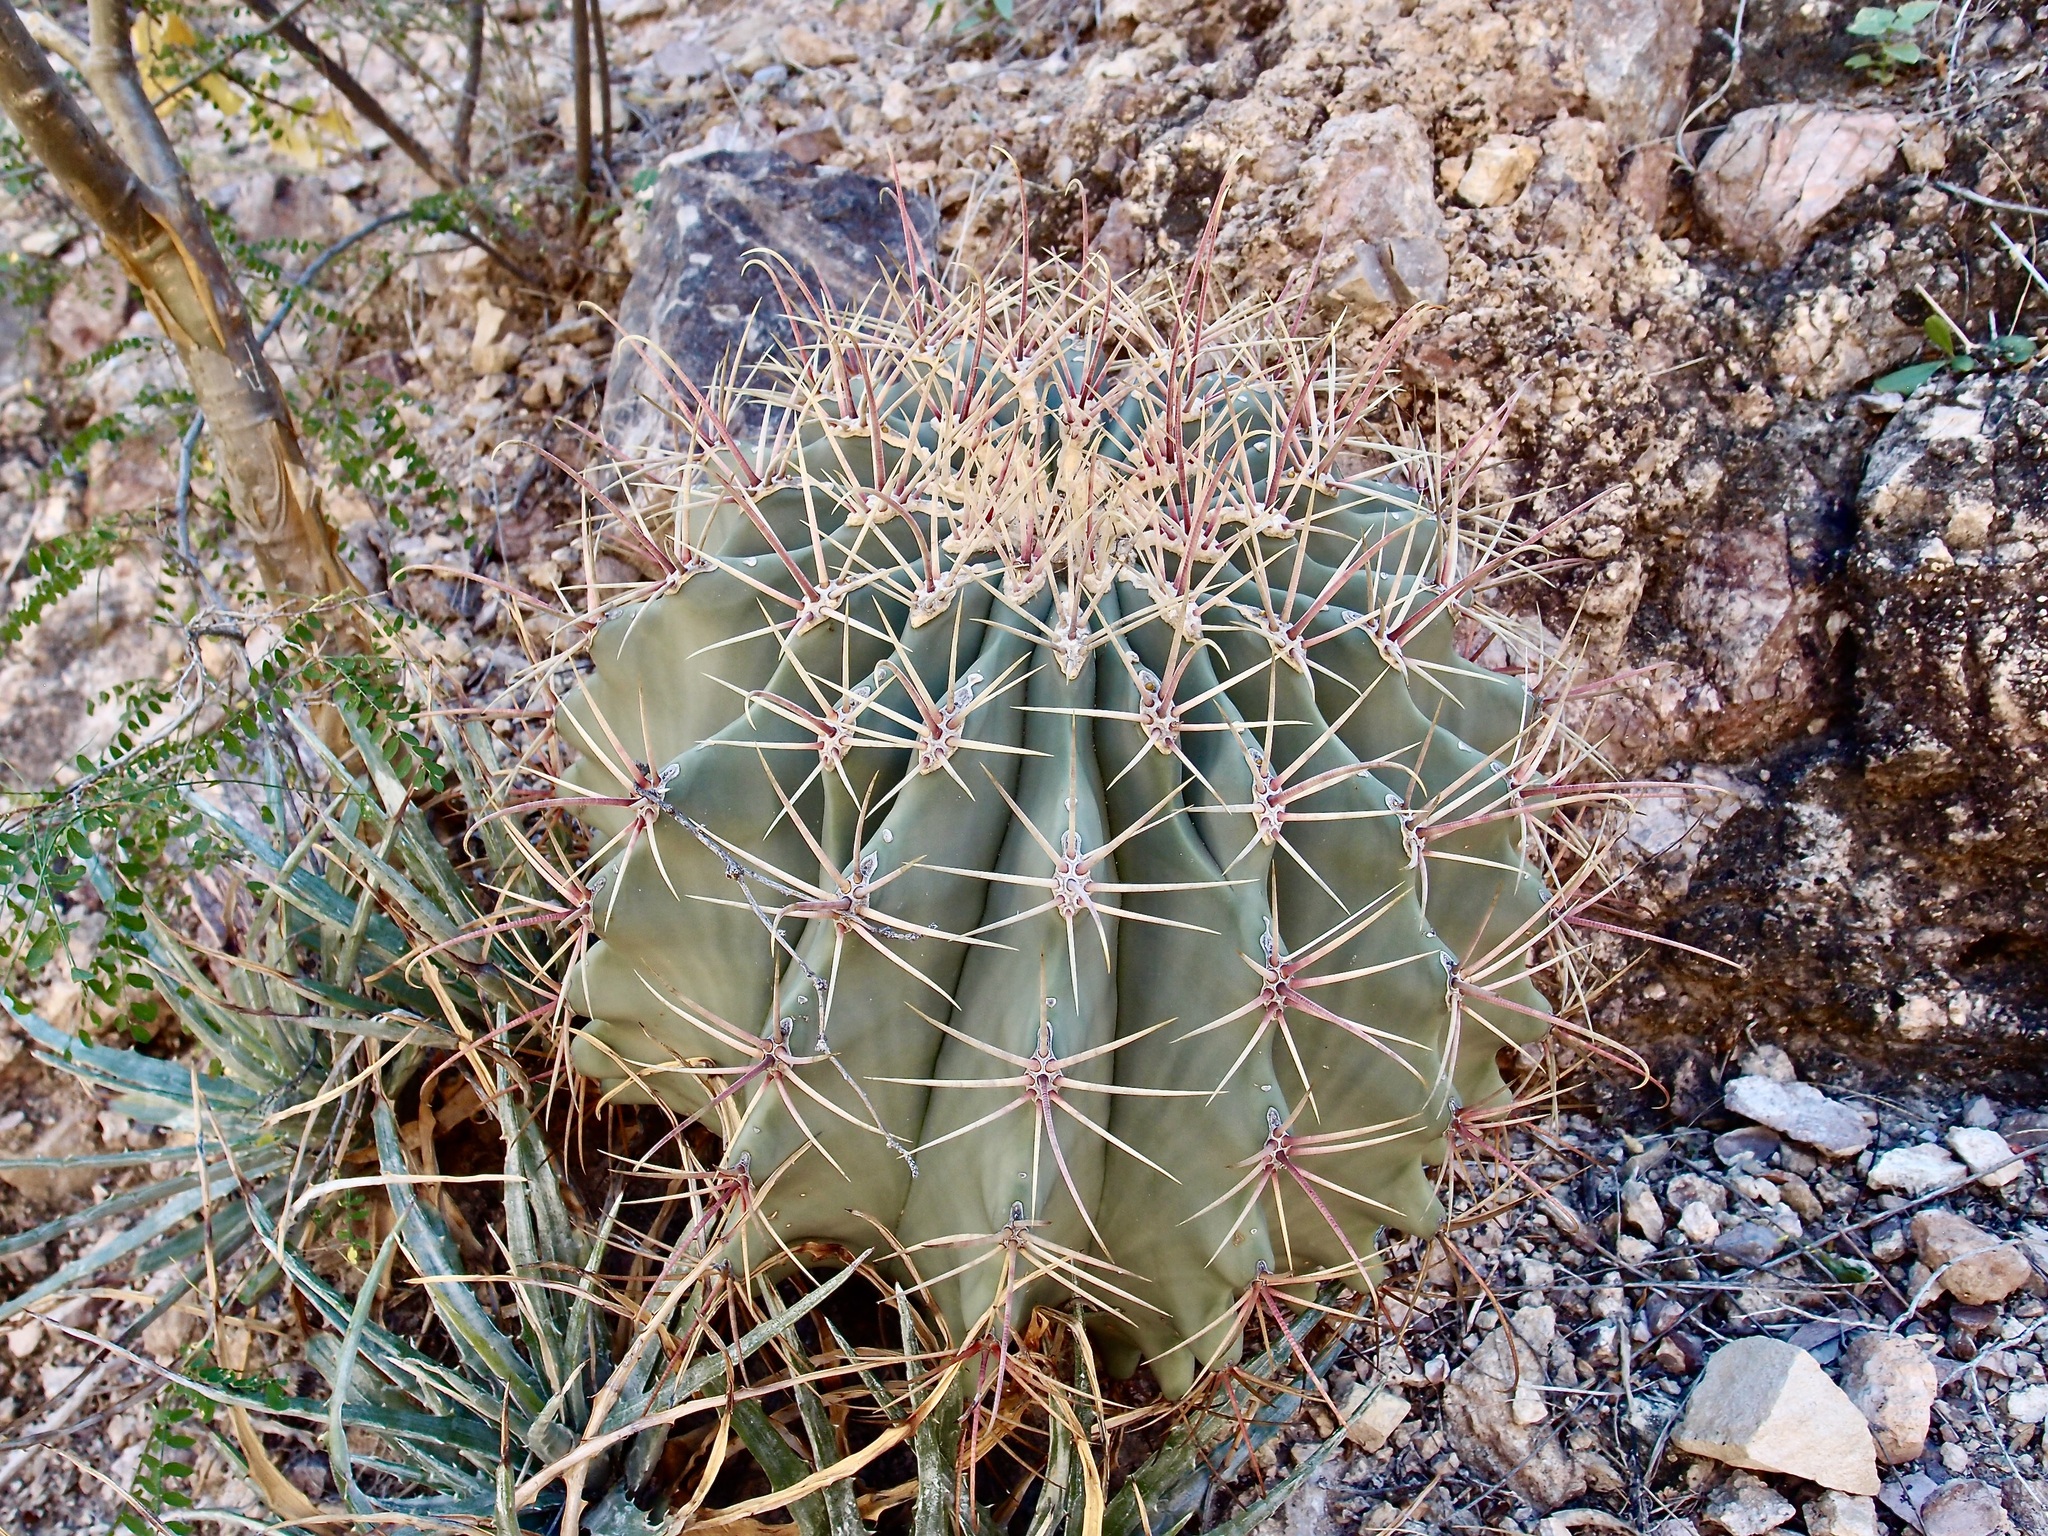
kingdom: Plantae
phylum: Tracheophyta
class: Magnoliopsida
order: Caryophyllales
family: Cactaceae
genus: Ferocactus
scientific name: Ferocactus emoryi
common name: Emory's barrel cactus
